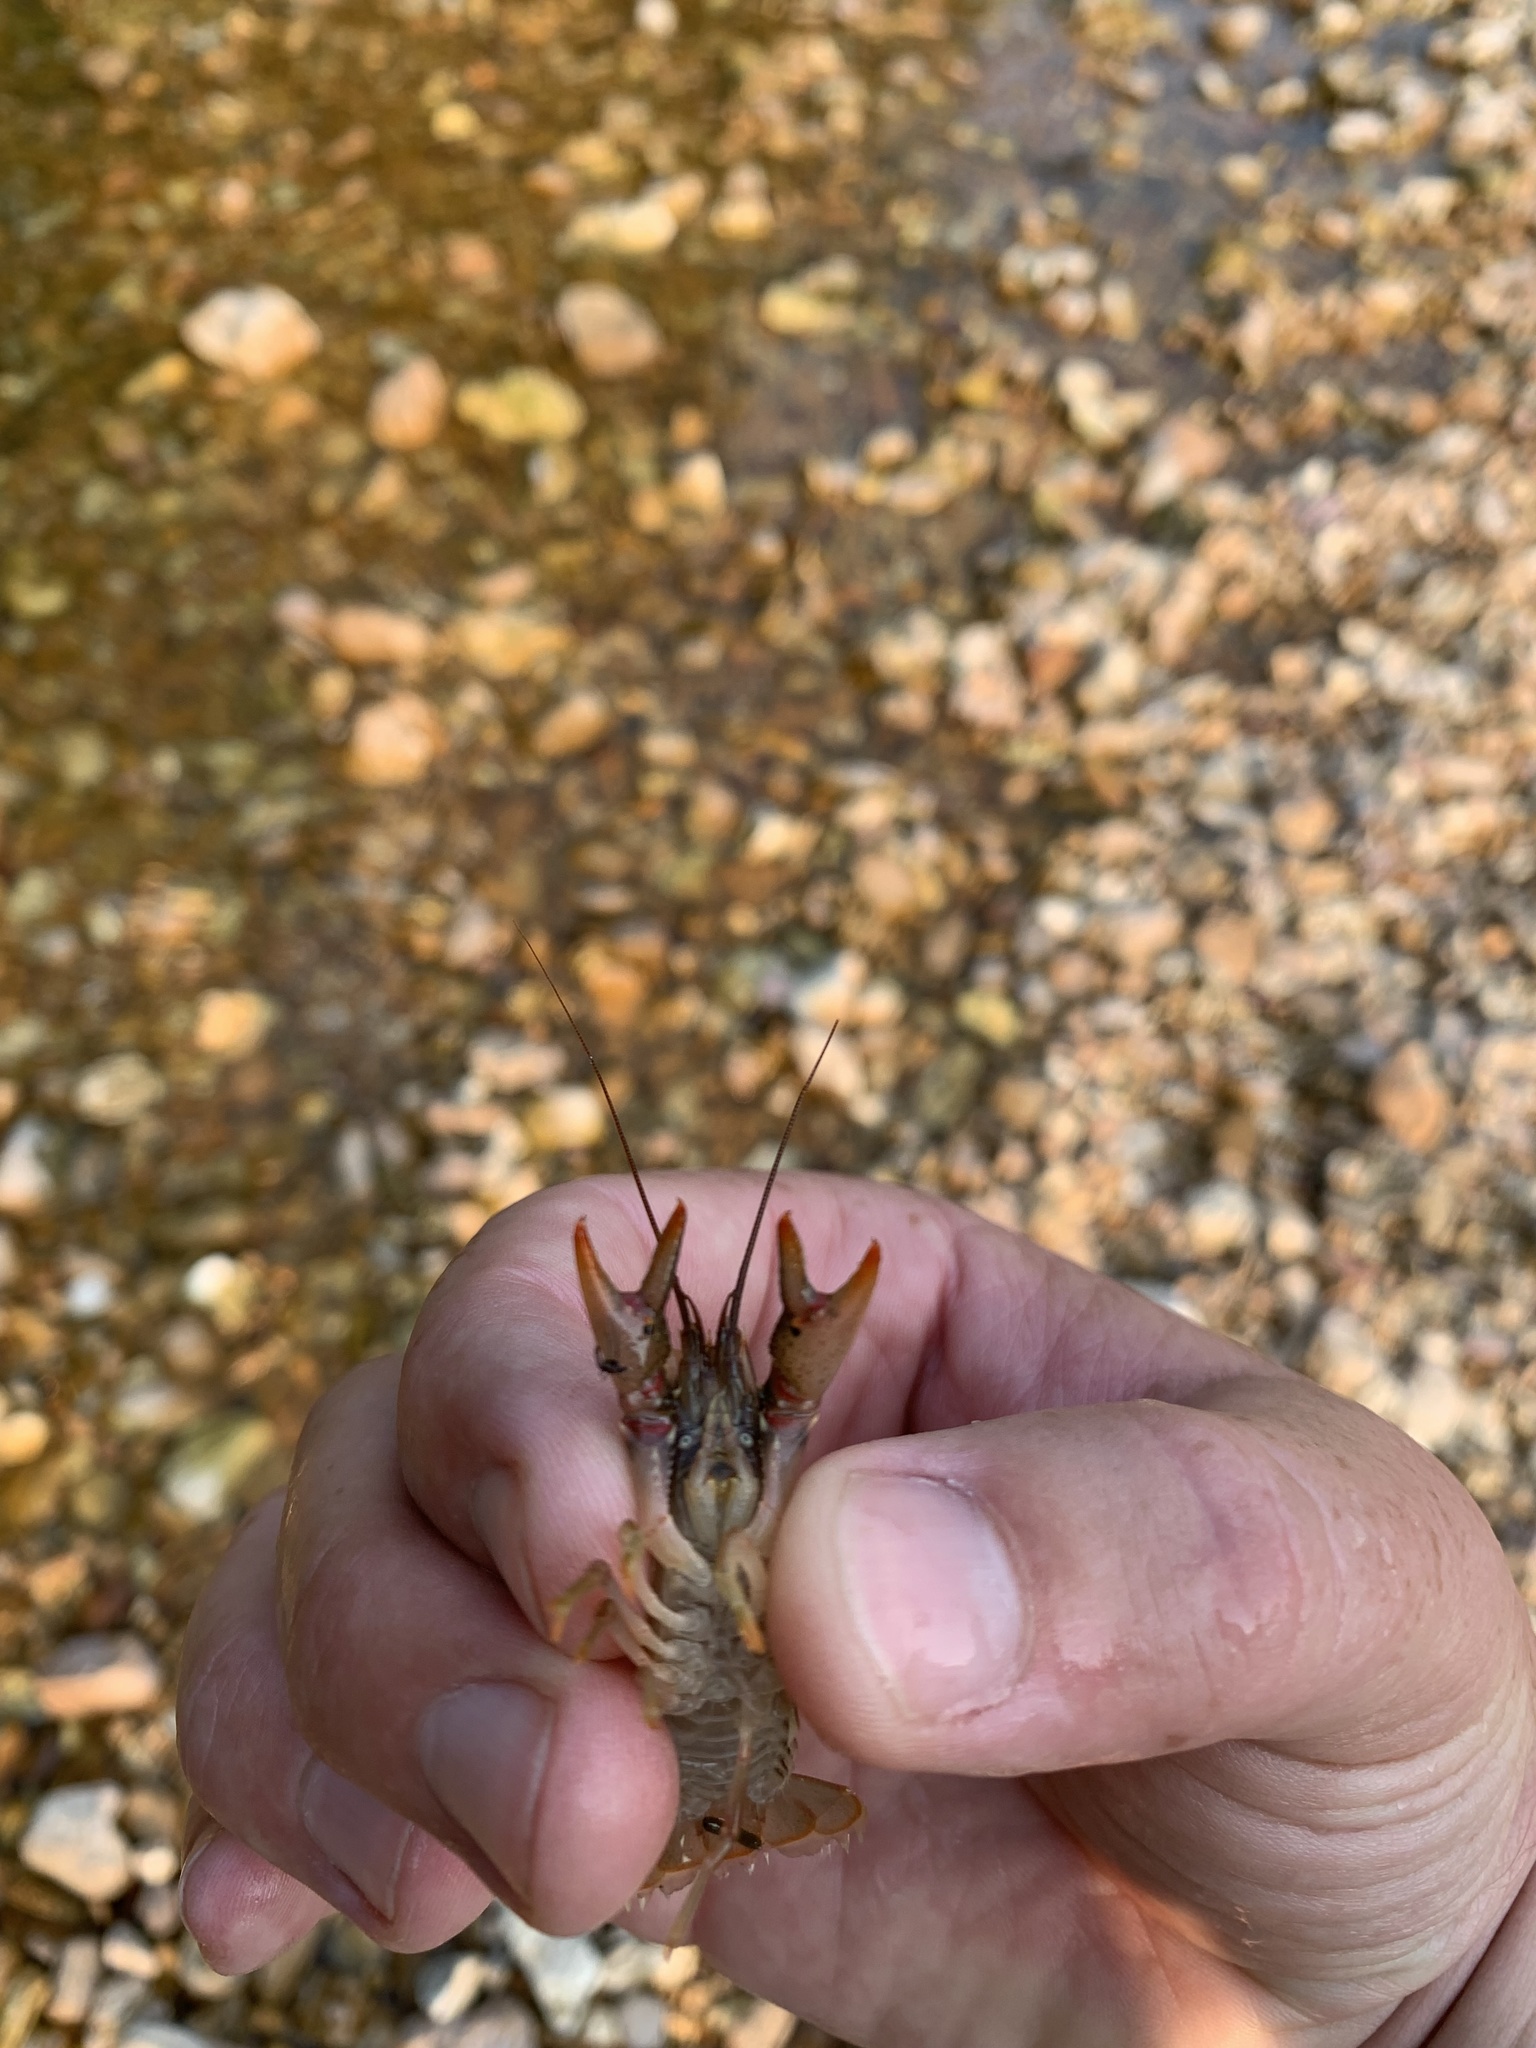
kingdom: Animalia
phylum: Arthropoda
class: Malacostraca
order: Decapoda
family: Cambaridae
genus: Faxonius
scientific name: Faxonius punctimanus
